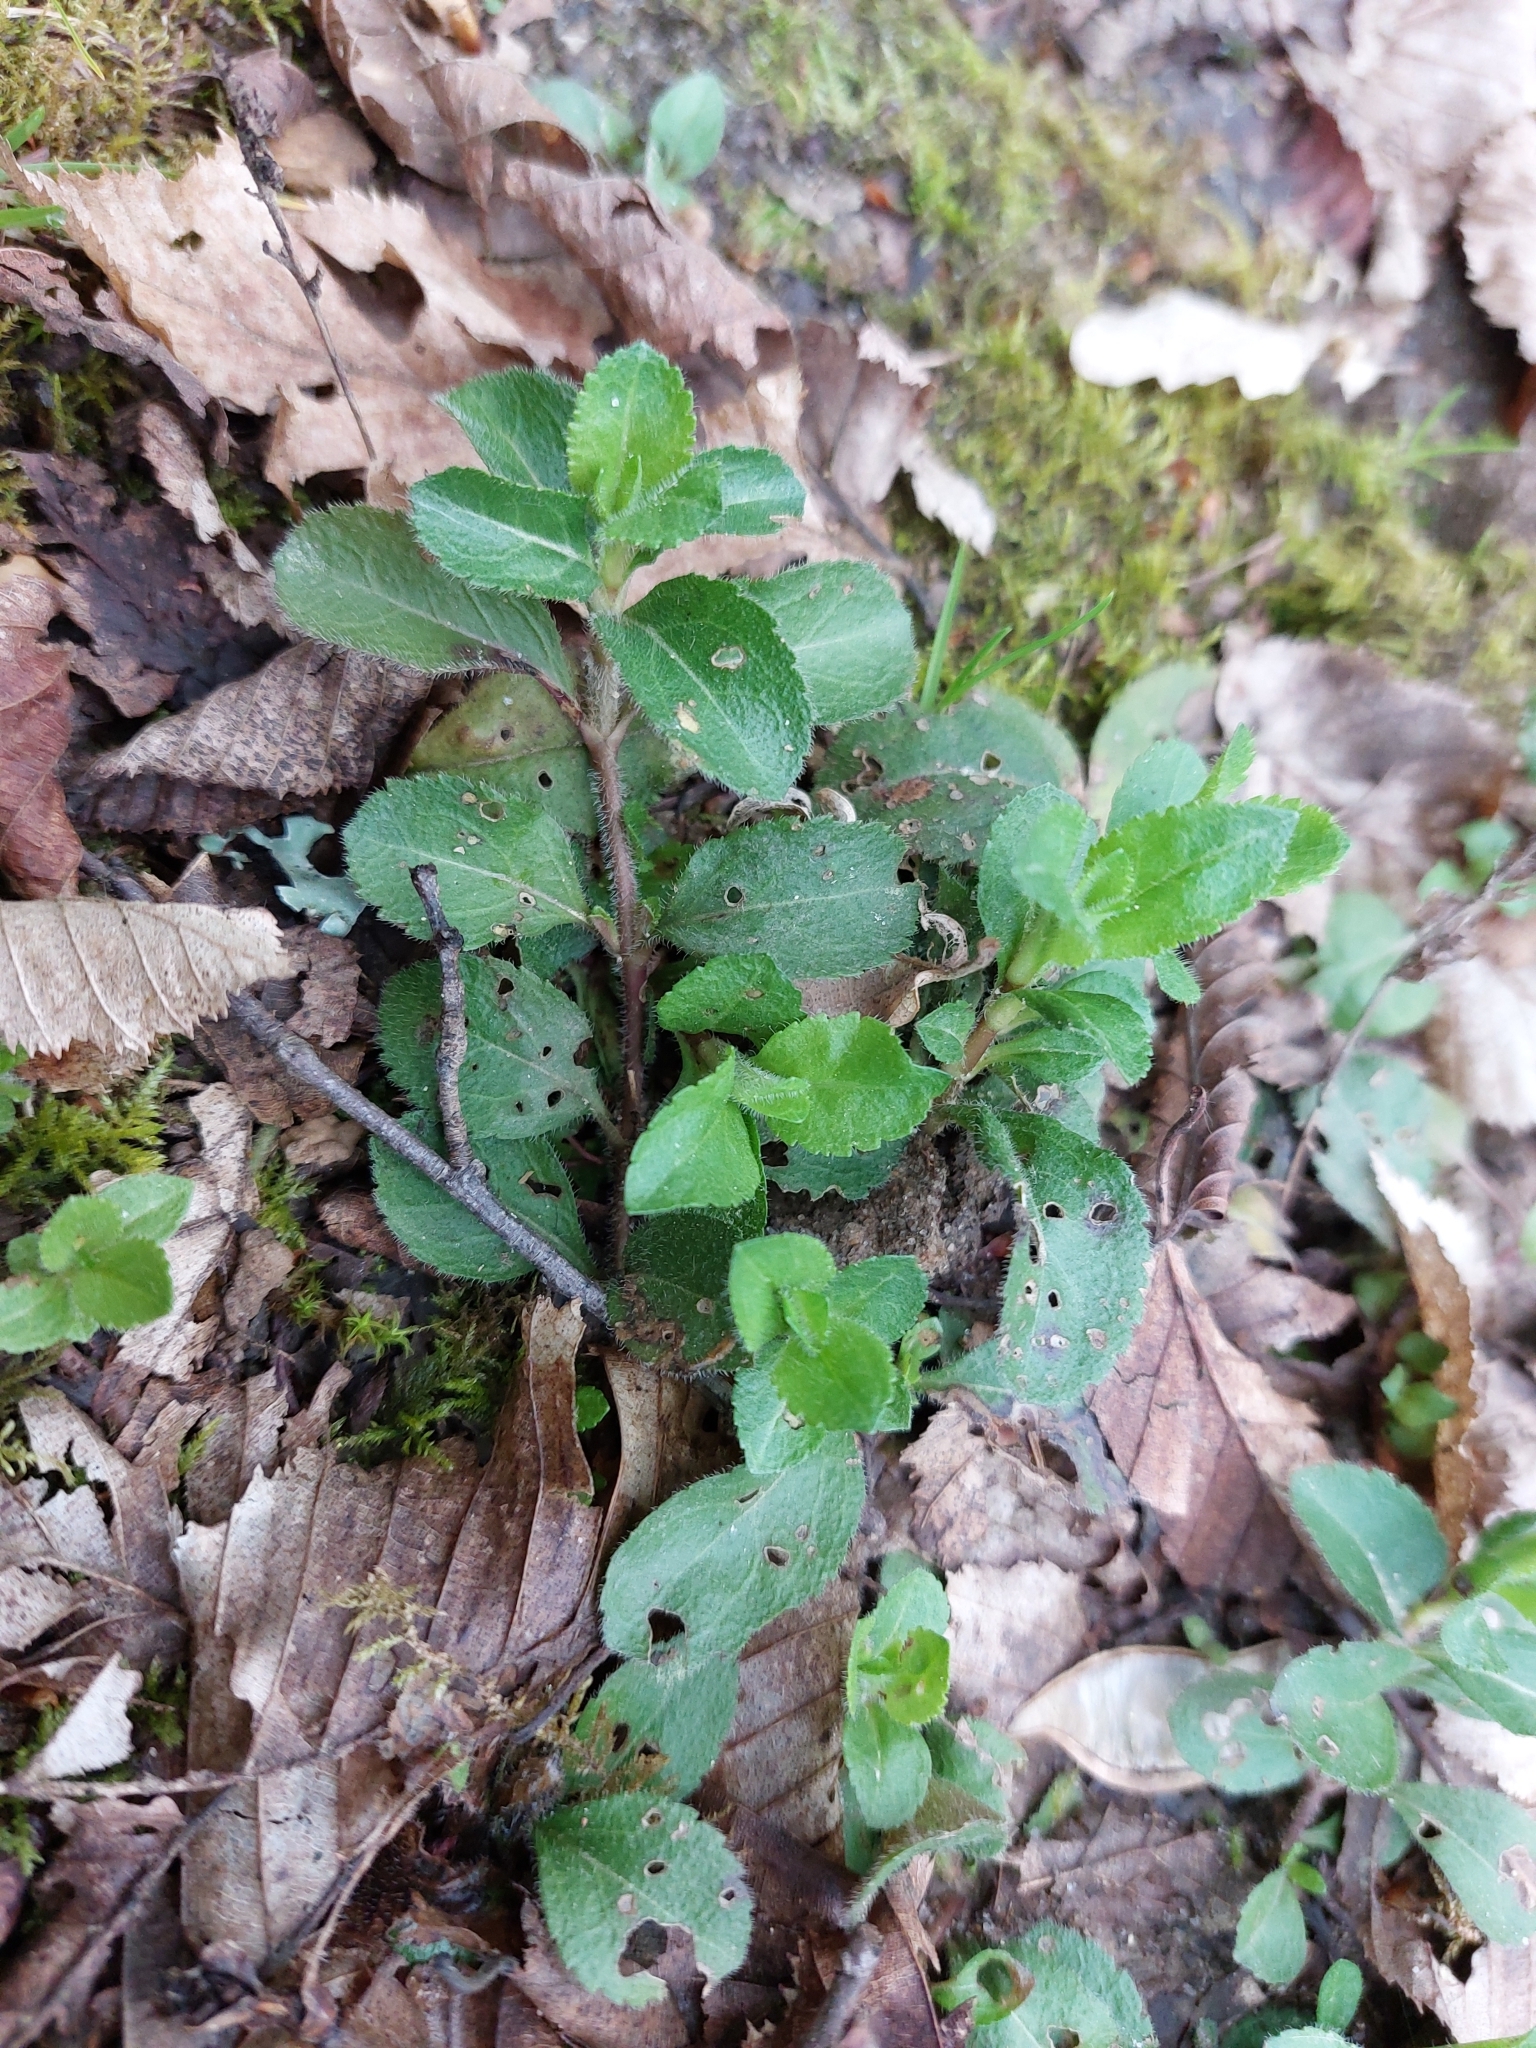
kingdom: Plantae
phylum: Tracheophyta
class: Magnoliopsida
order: Lamiales
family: Plantaginaceae
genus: Veronica
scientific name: Veronica officinalis
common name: Common speedwell
